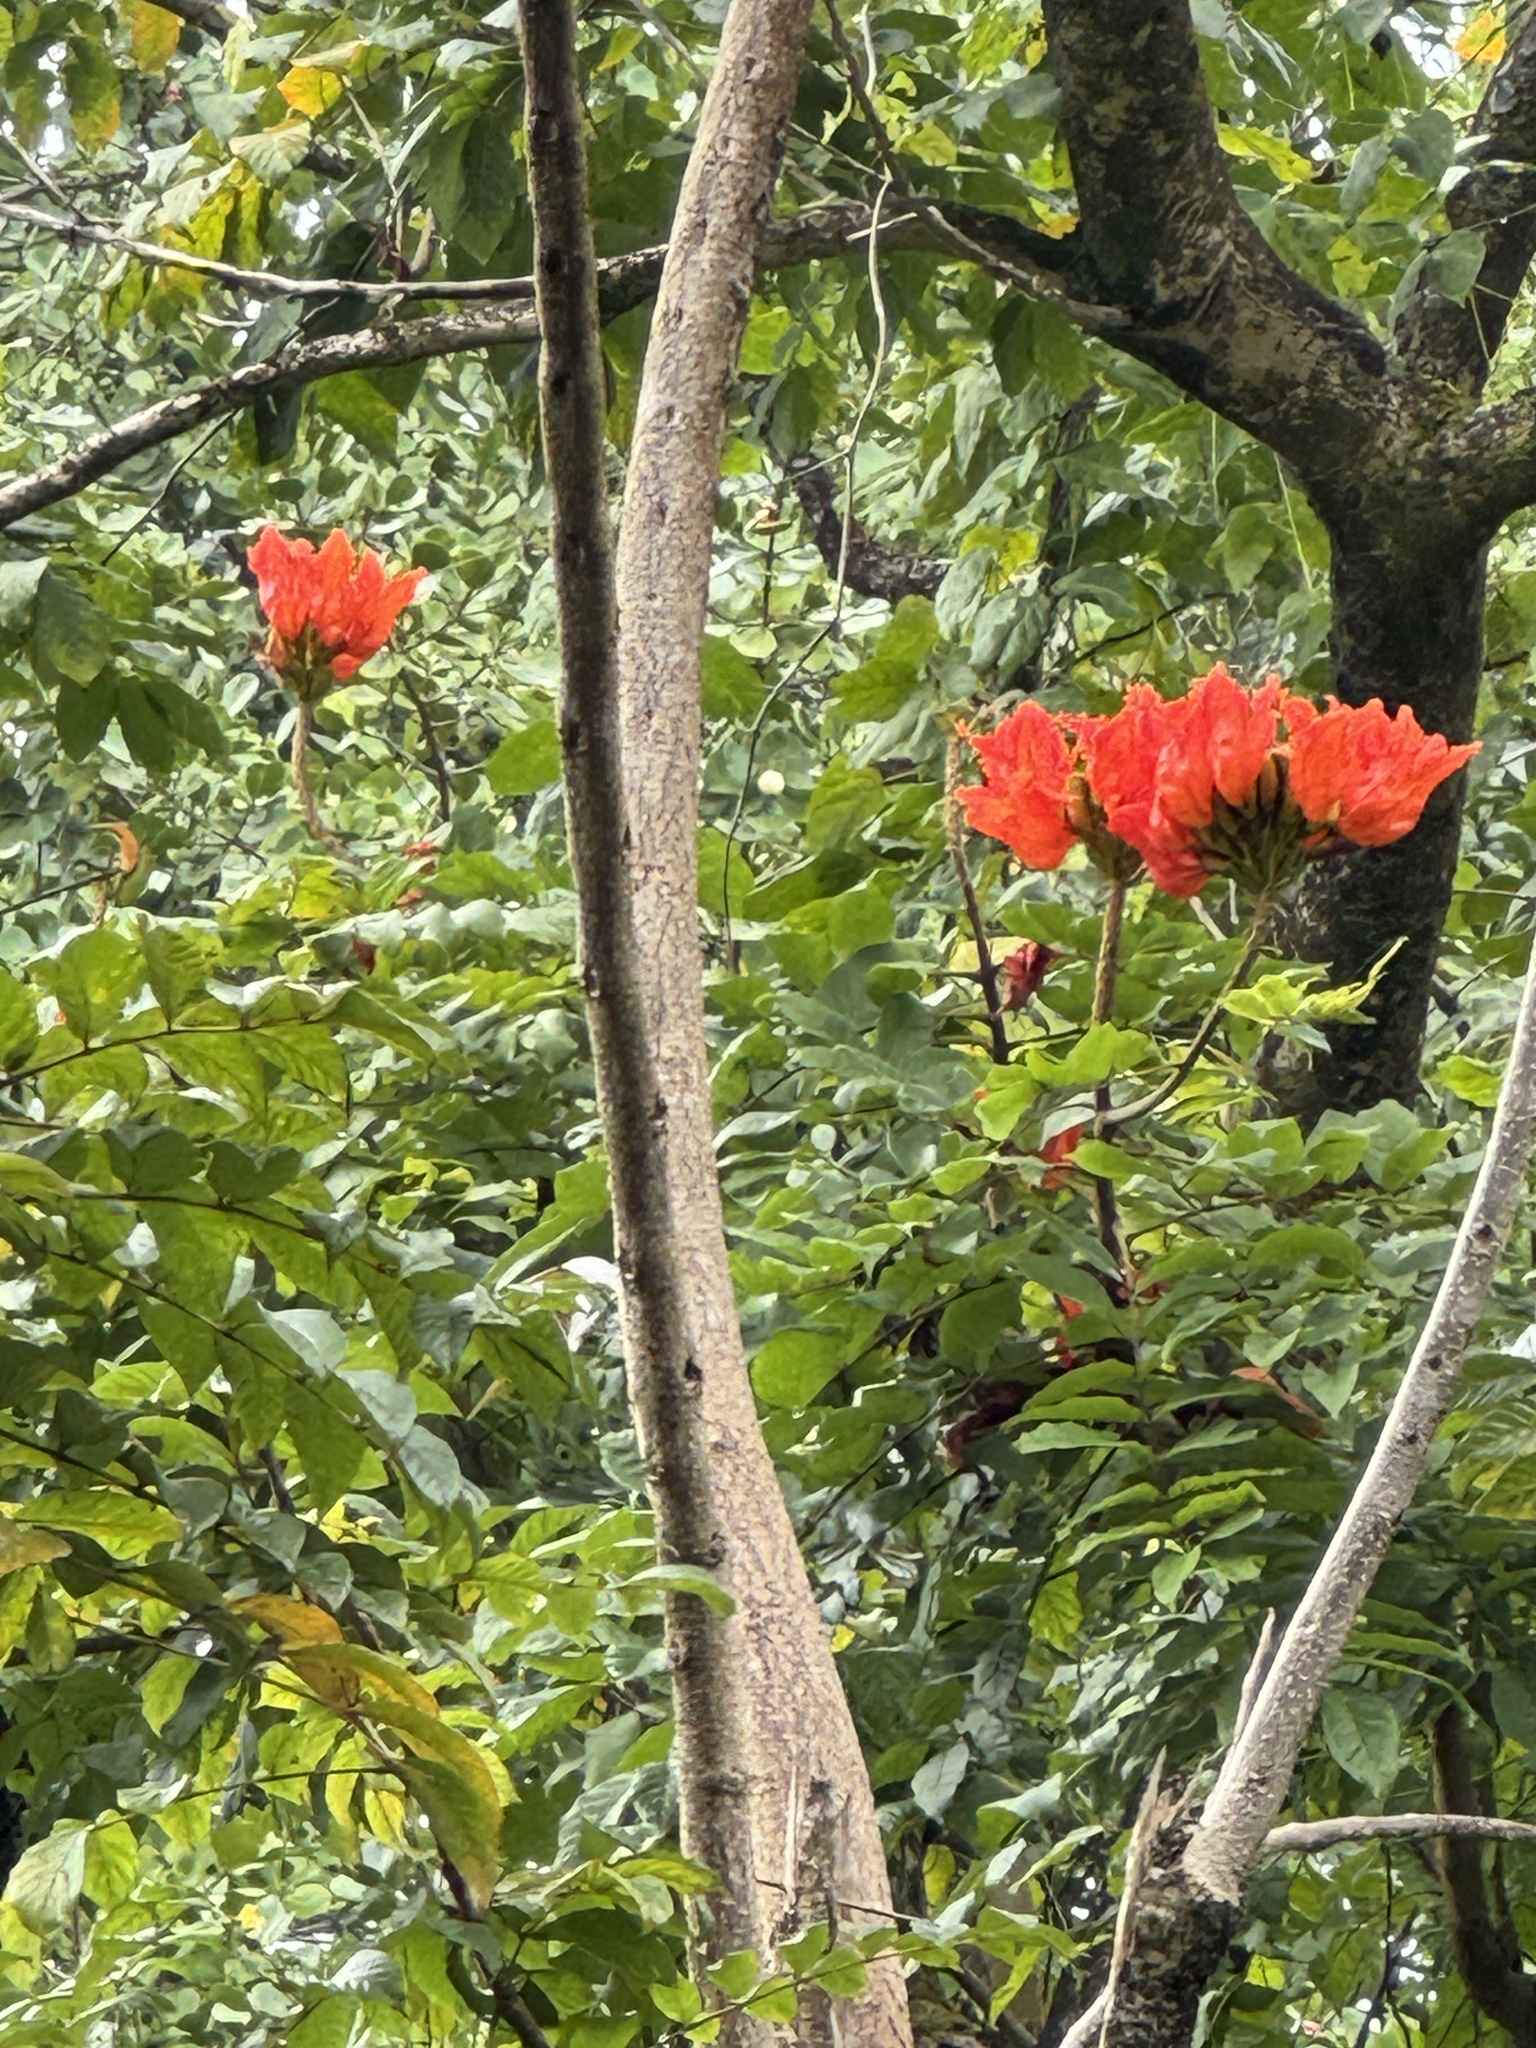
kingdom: Plantae
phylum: Tracheophyta
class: Magnoliopsida
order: Lamiales
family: Bignoniaceae
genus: Spathodea
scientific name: Spathodea campanulata
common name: African tuliptree
